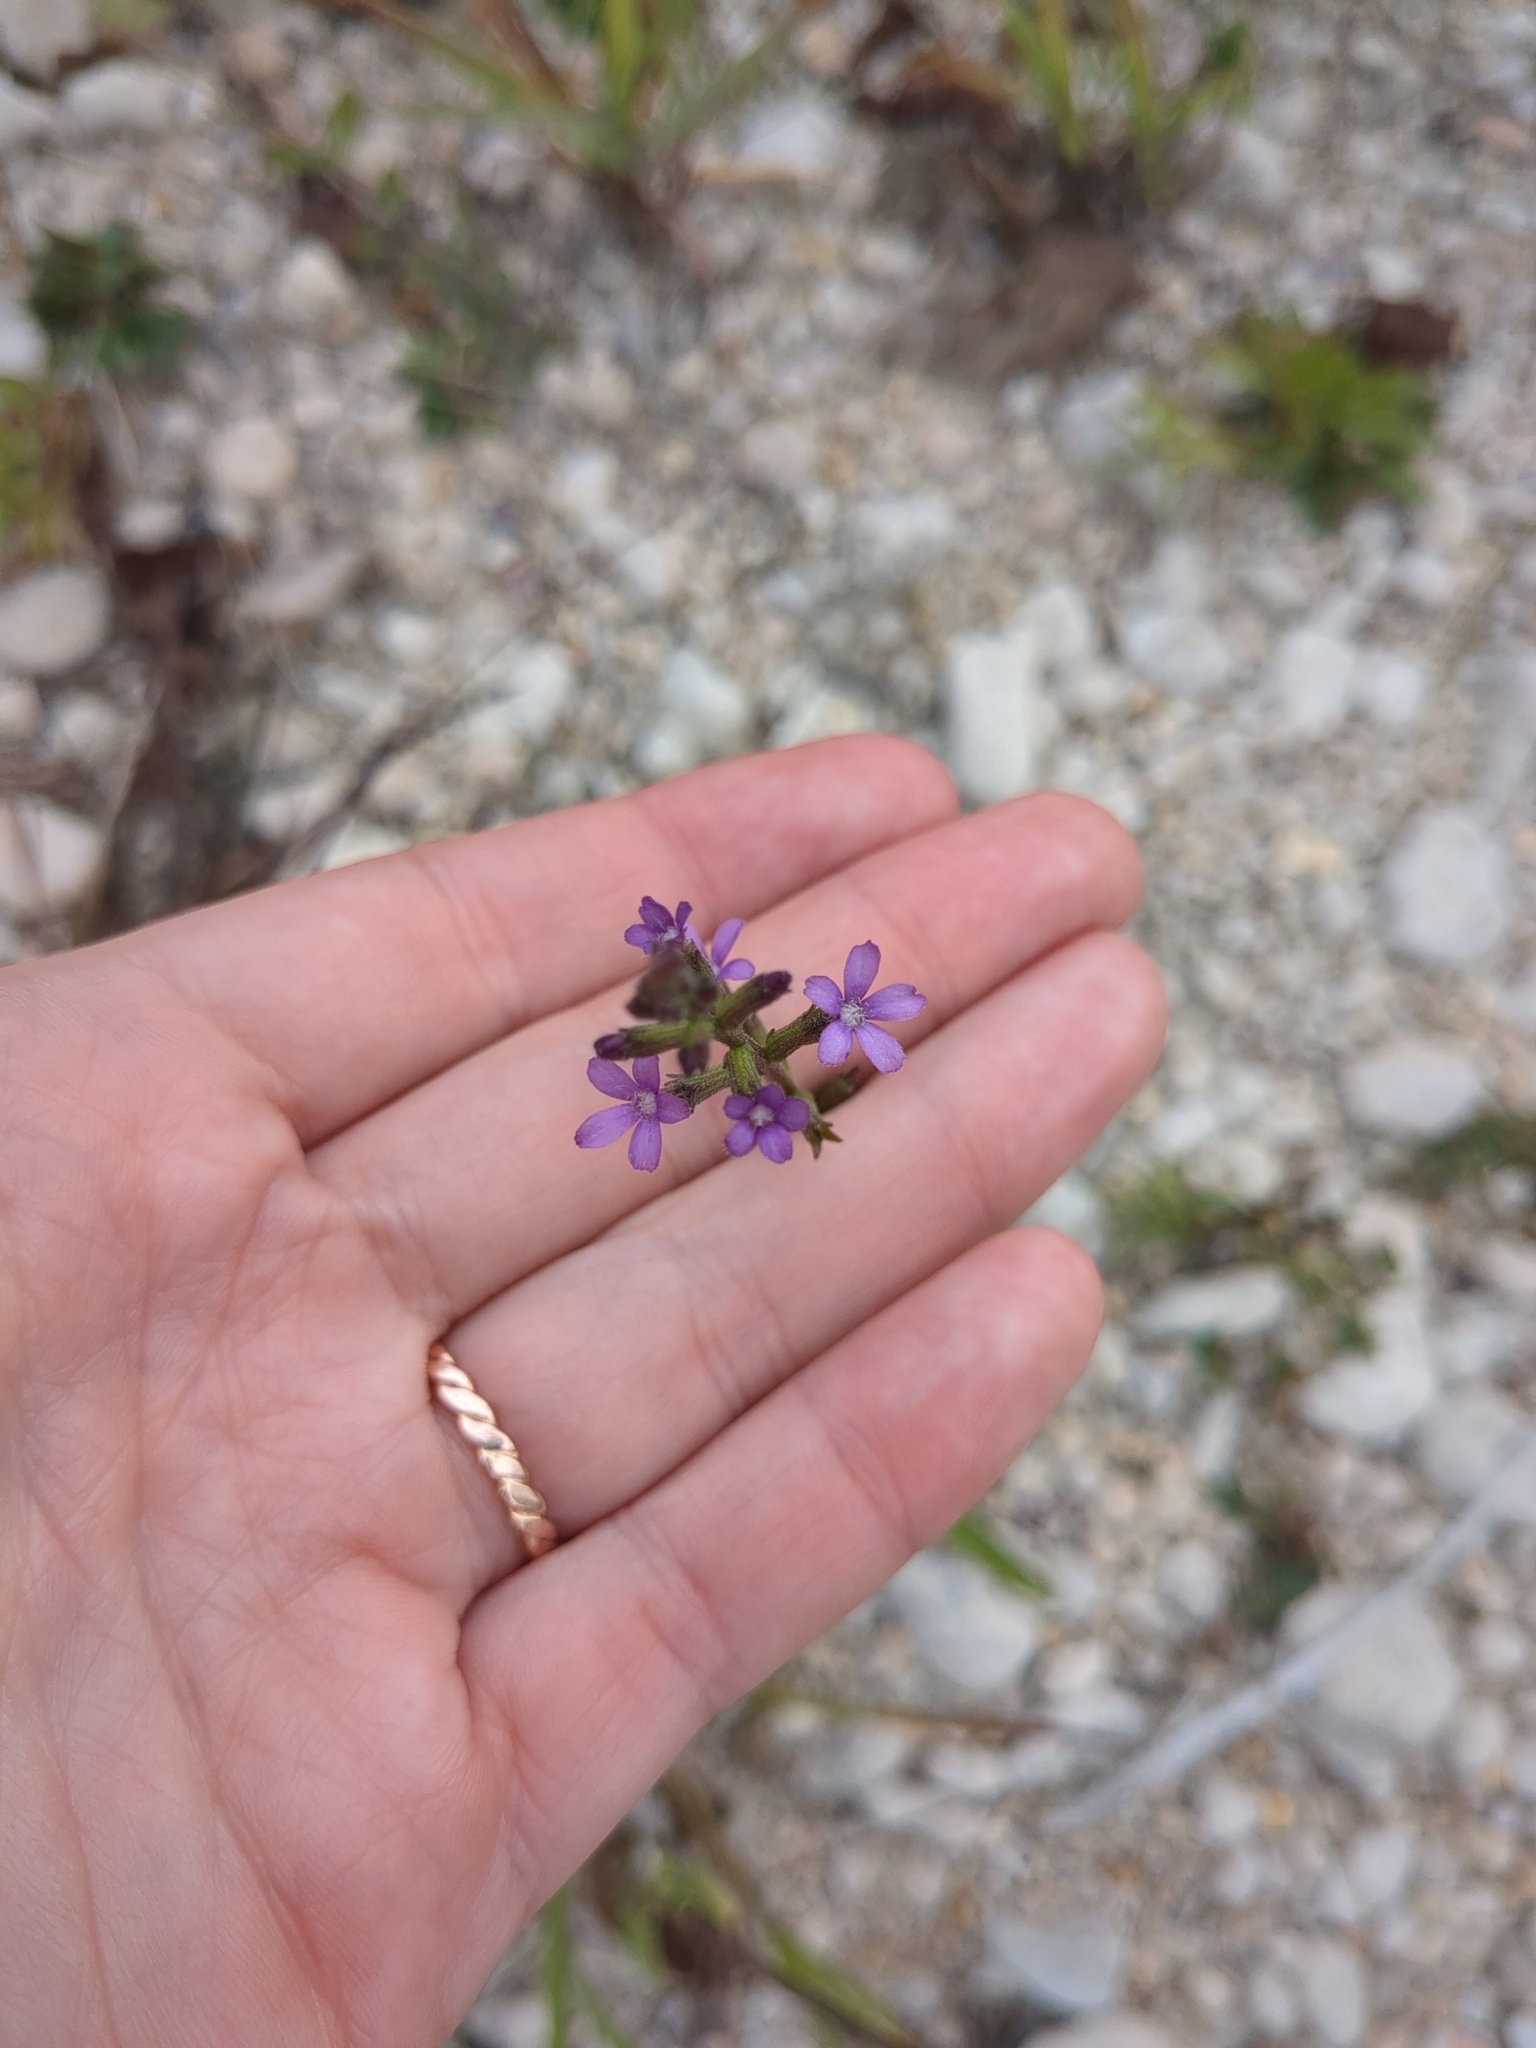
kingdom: Plantae
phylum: Tracheophyta
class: Magnoliopsida
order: Lamiales
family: Orobanchaceae
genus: Buchnera
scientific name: Buchnera floridana
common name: Florida bluehearts
